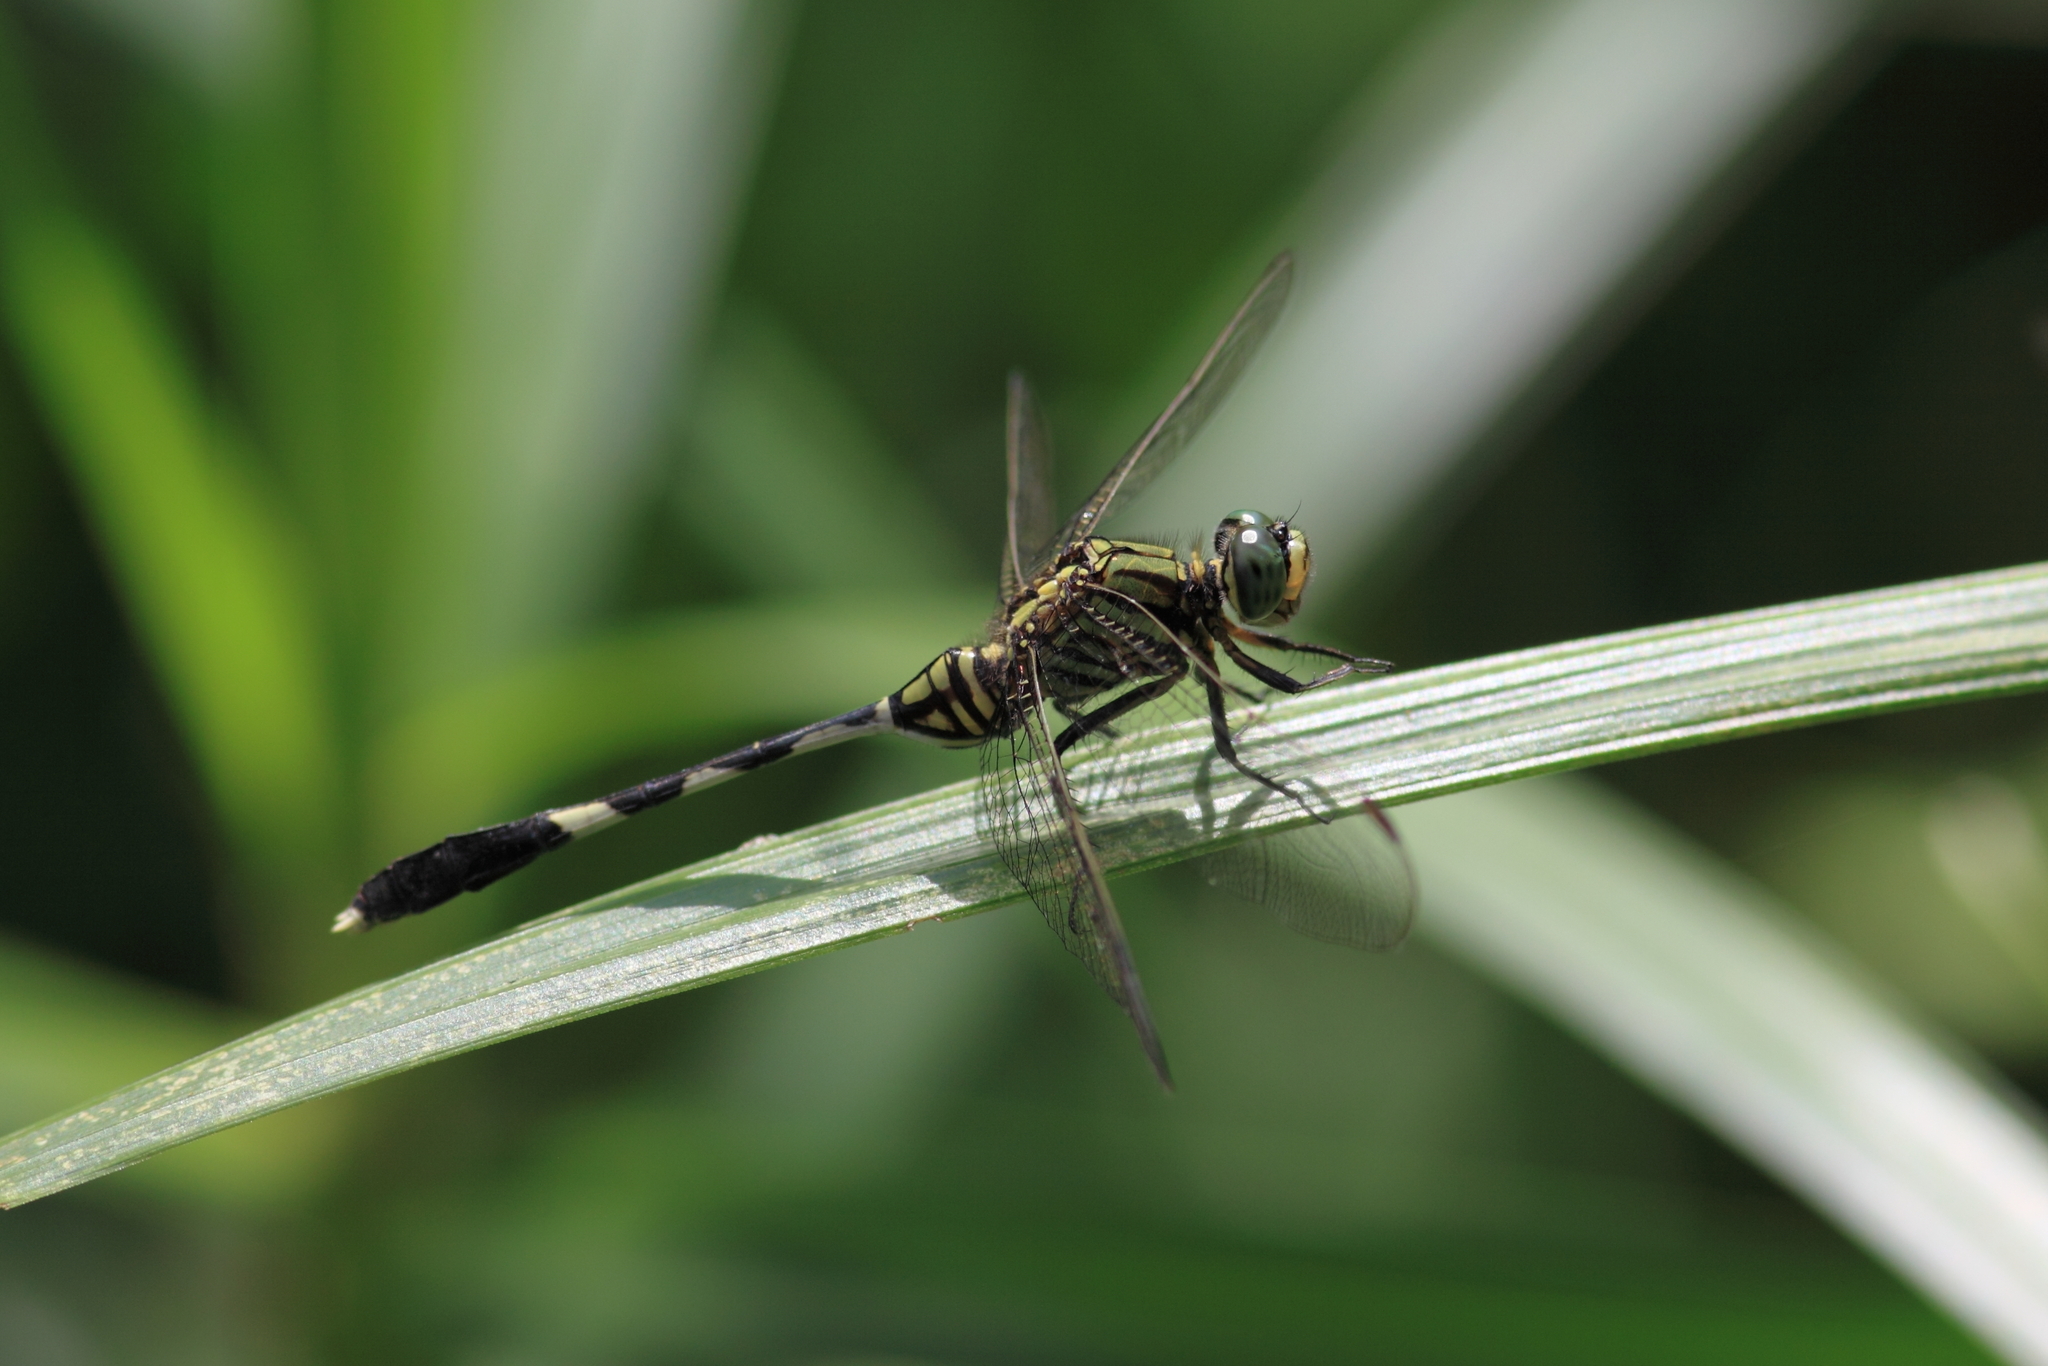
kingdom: Animalia
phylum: Arthropoda
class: Insecta
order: Odonata
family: Libellulidae
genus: Orthetrum
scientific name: Orthetrum sabina
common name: Slender skimmer
